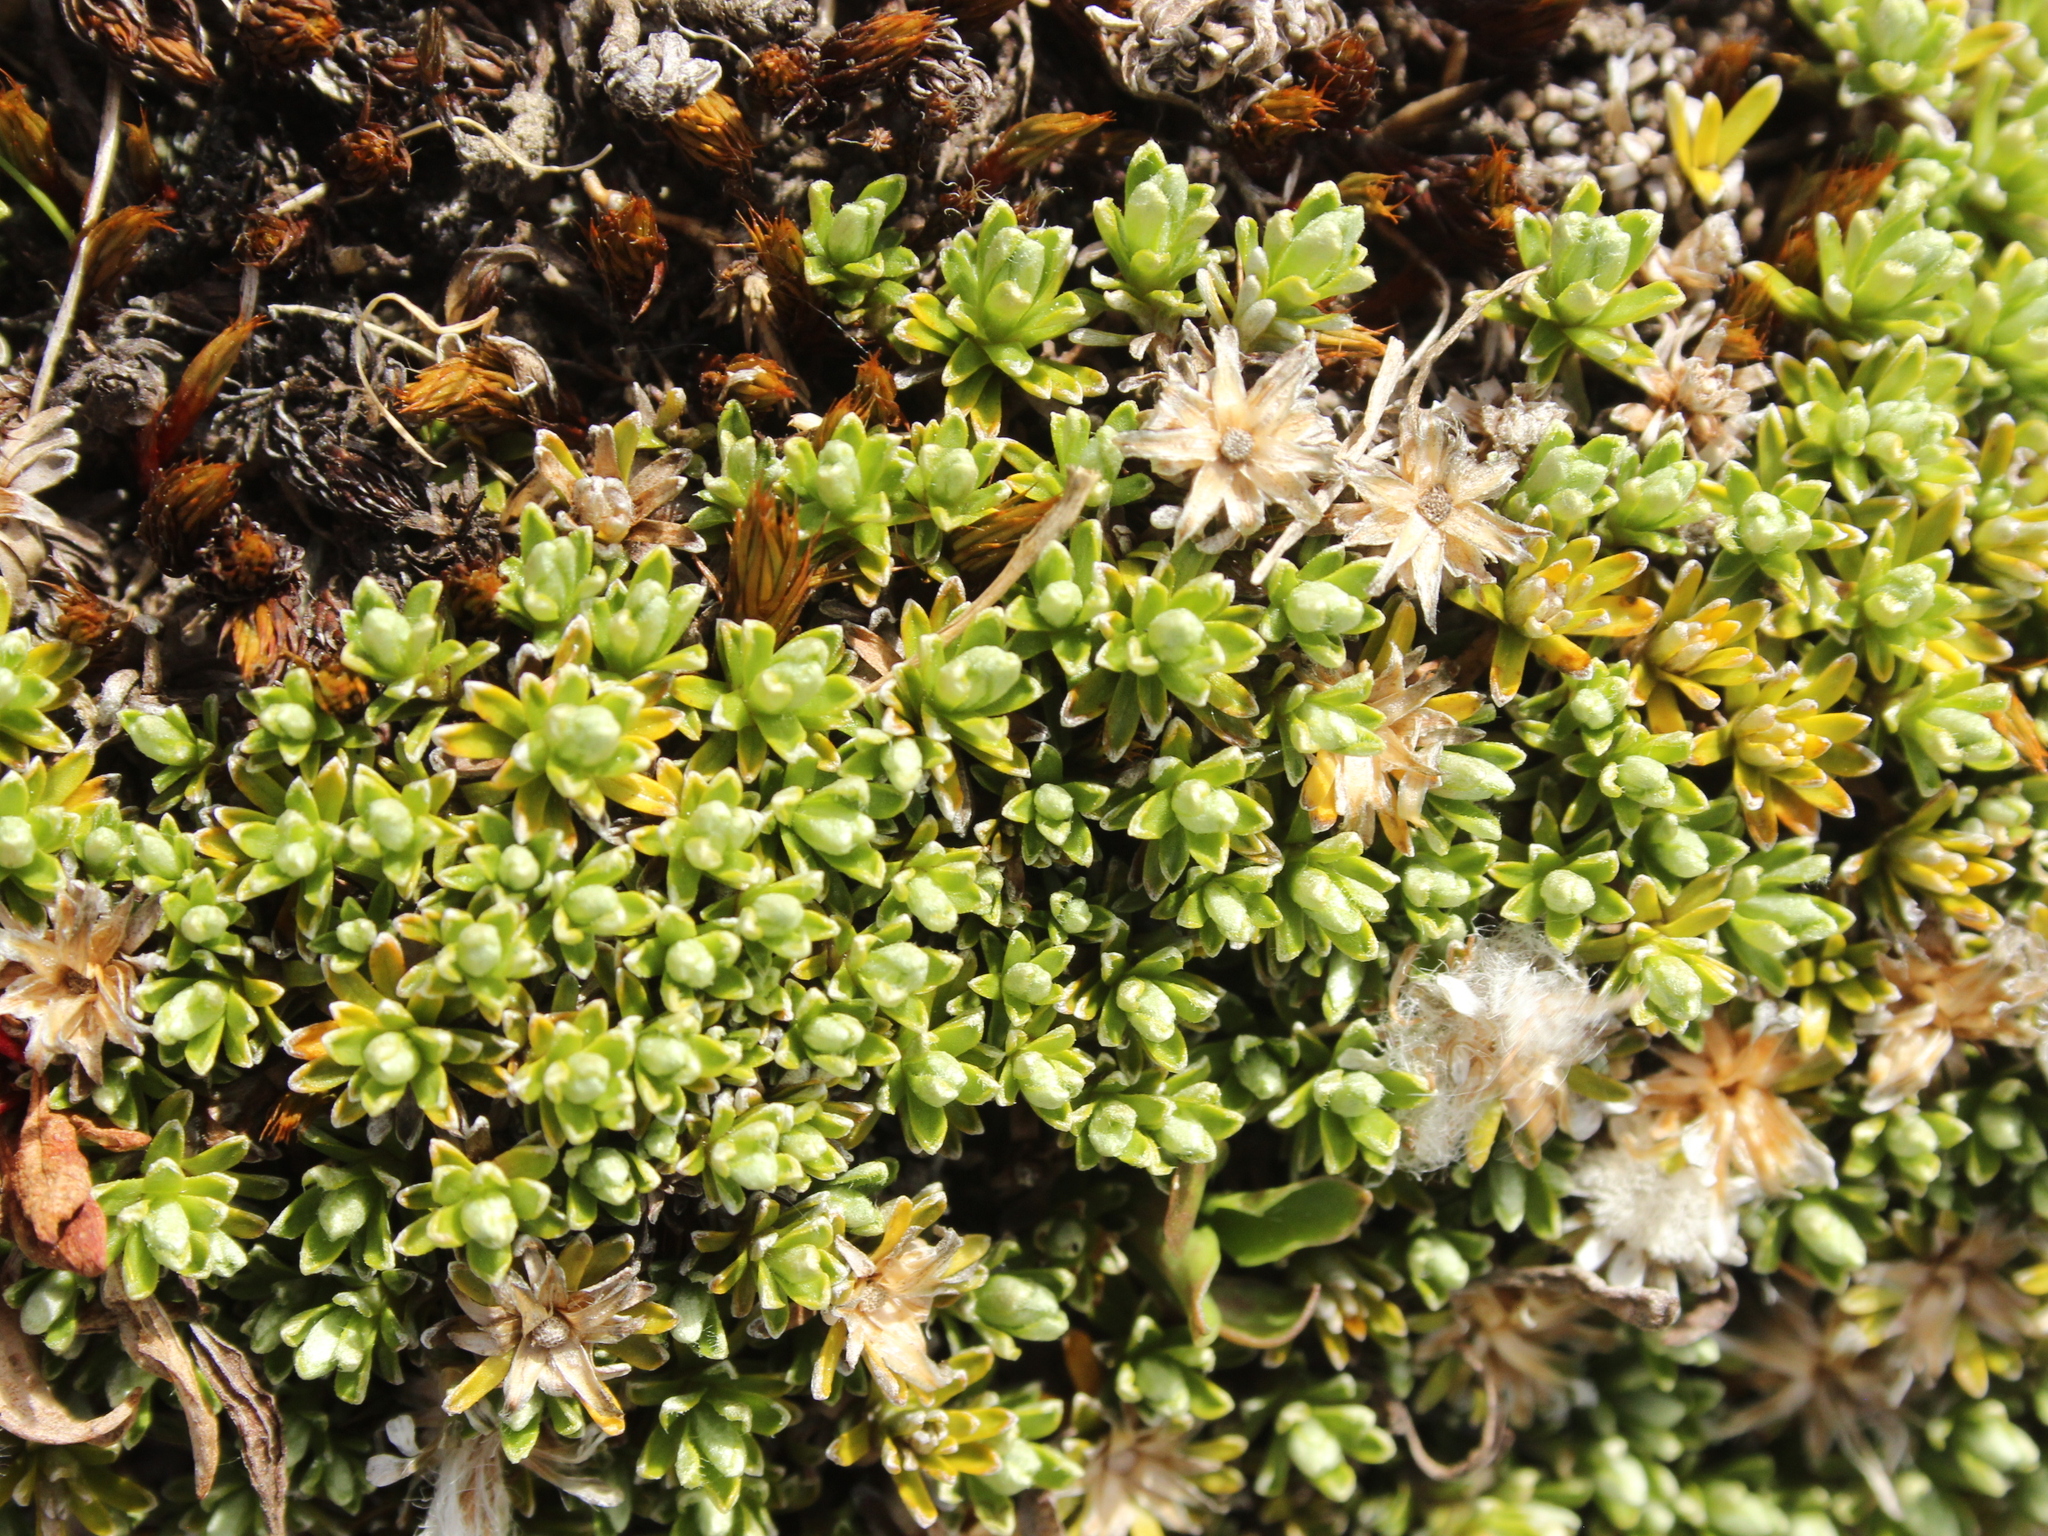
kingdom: Plantae
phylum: Tracheophyta
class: Magnoliopsida
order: Asterales
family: Asteraceae
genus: Raoulia
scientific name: Raoulia subsericea
